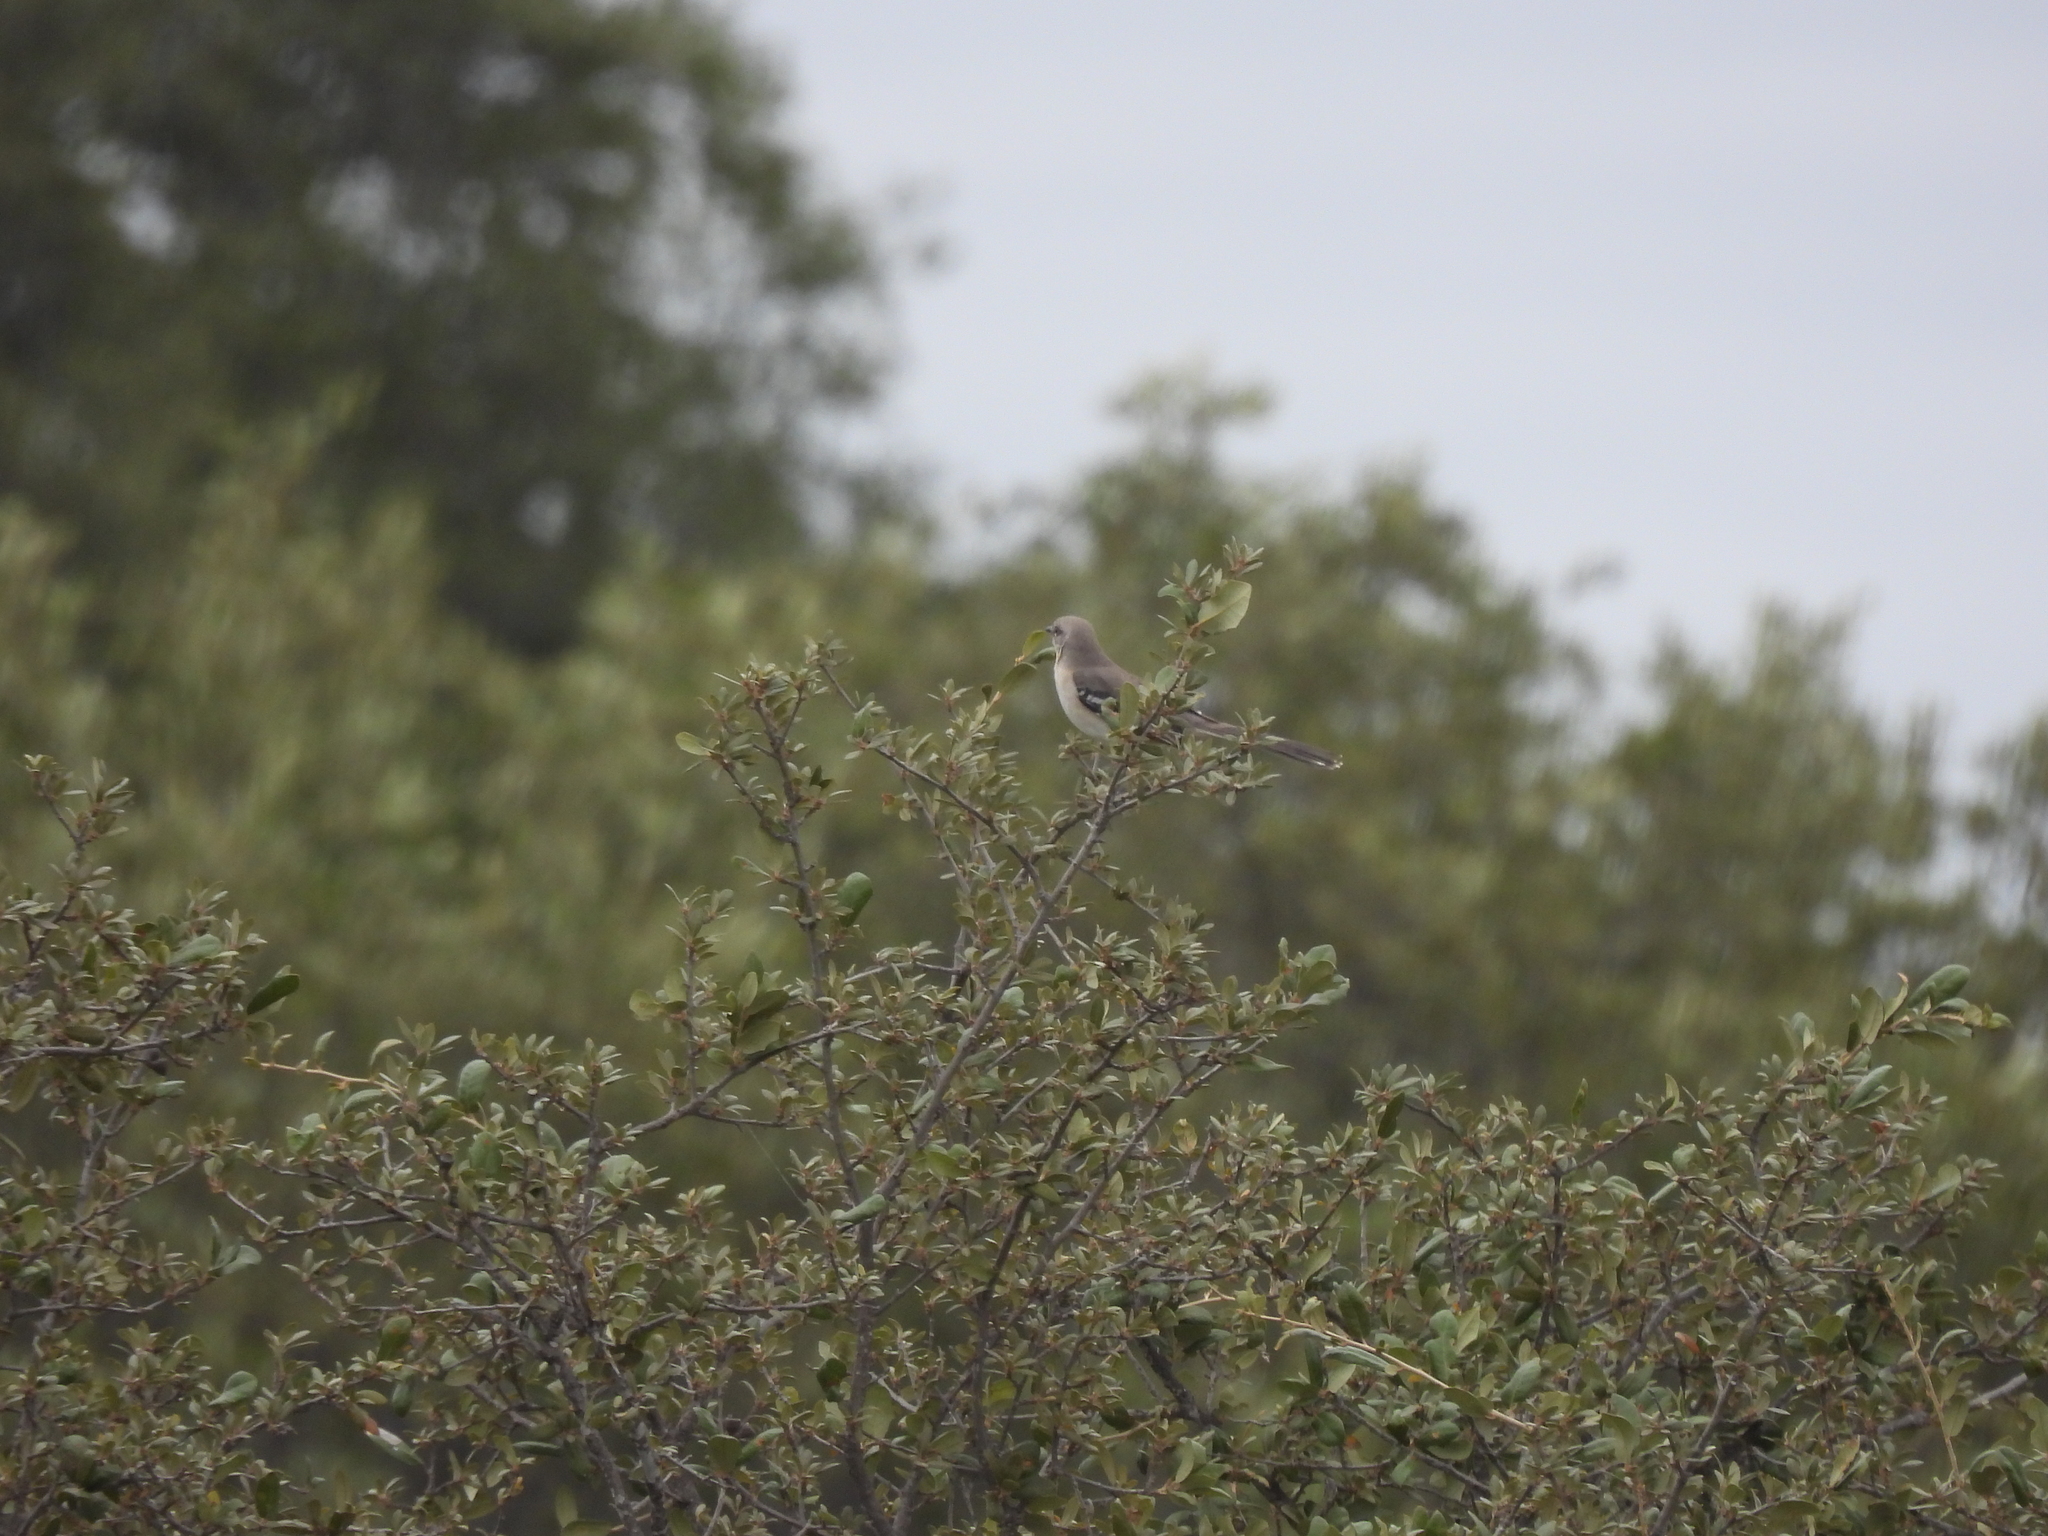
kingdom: Animalia
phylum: Chordata
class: Aves
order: Passeriformes
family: Mimidae
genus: Mimus
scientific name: Mimus polyglottos
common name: Northern mockingbird
